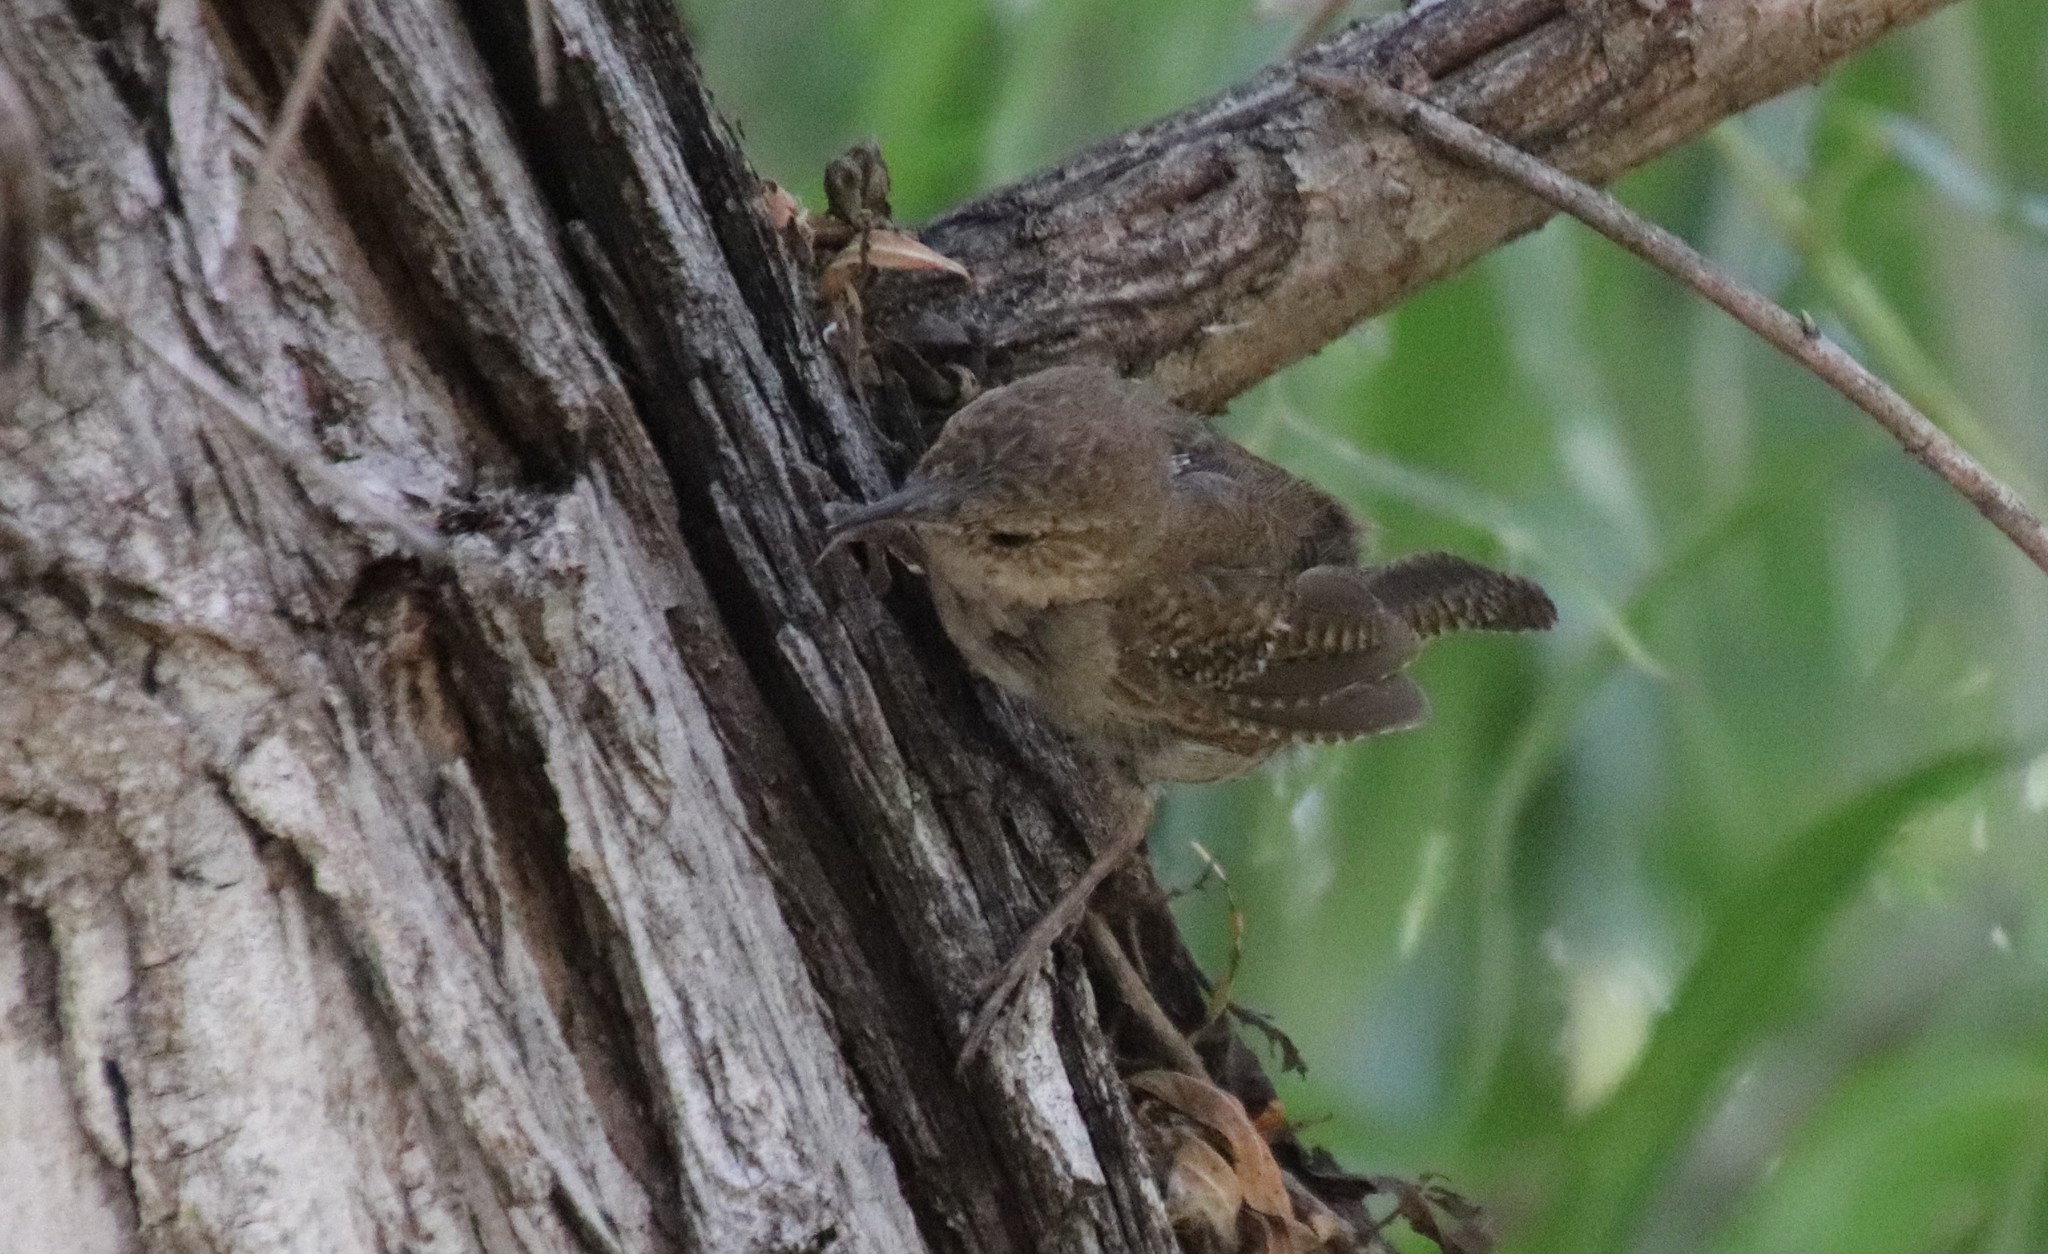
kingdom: Animalia
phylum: Chordata
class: Aves
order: Passeriformes
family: Troglodytidae
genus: Troglodytes
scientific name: Troglodytes aedon
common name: House wren
